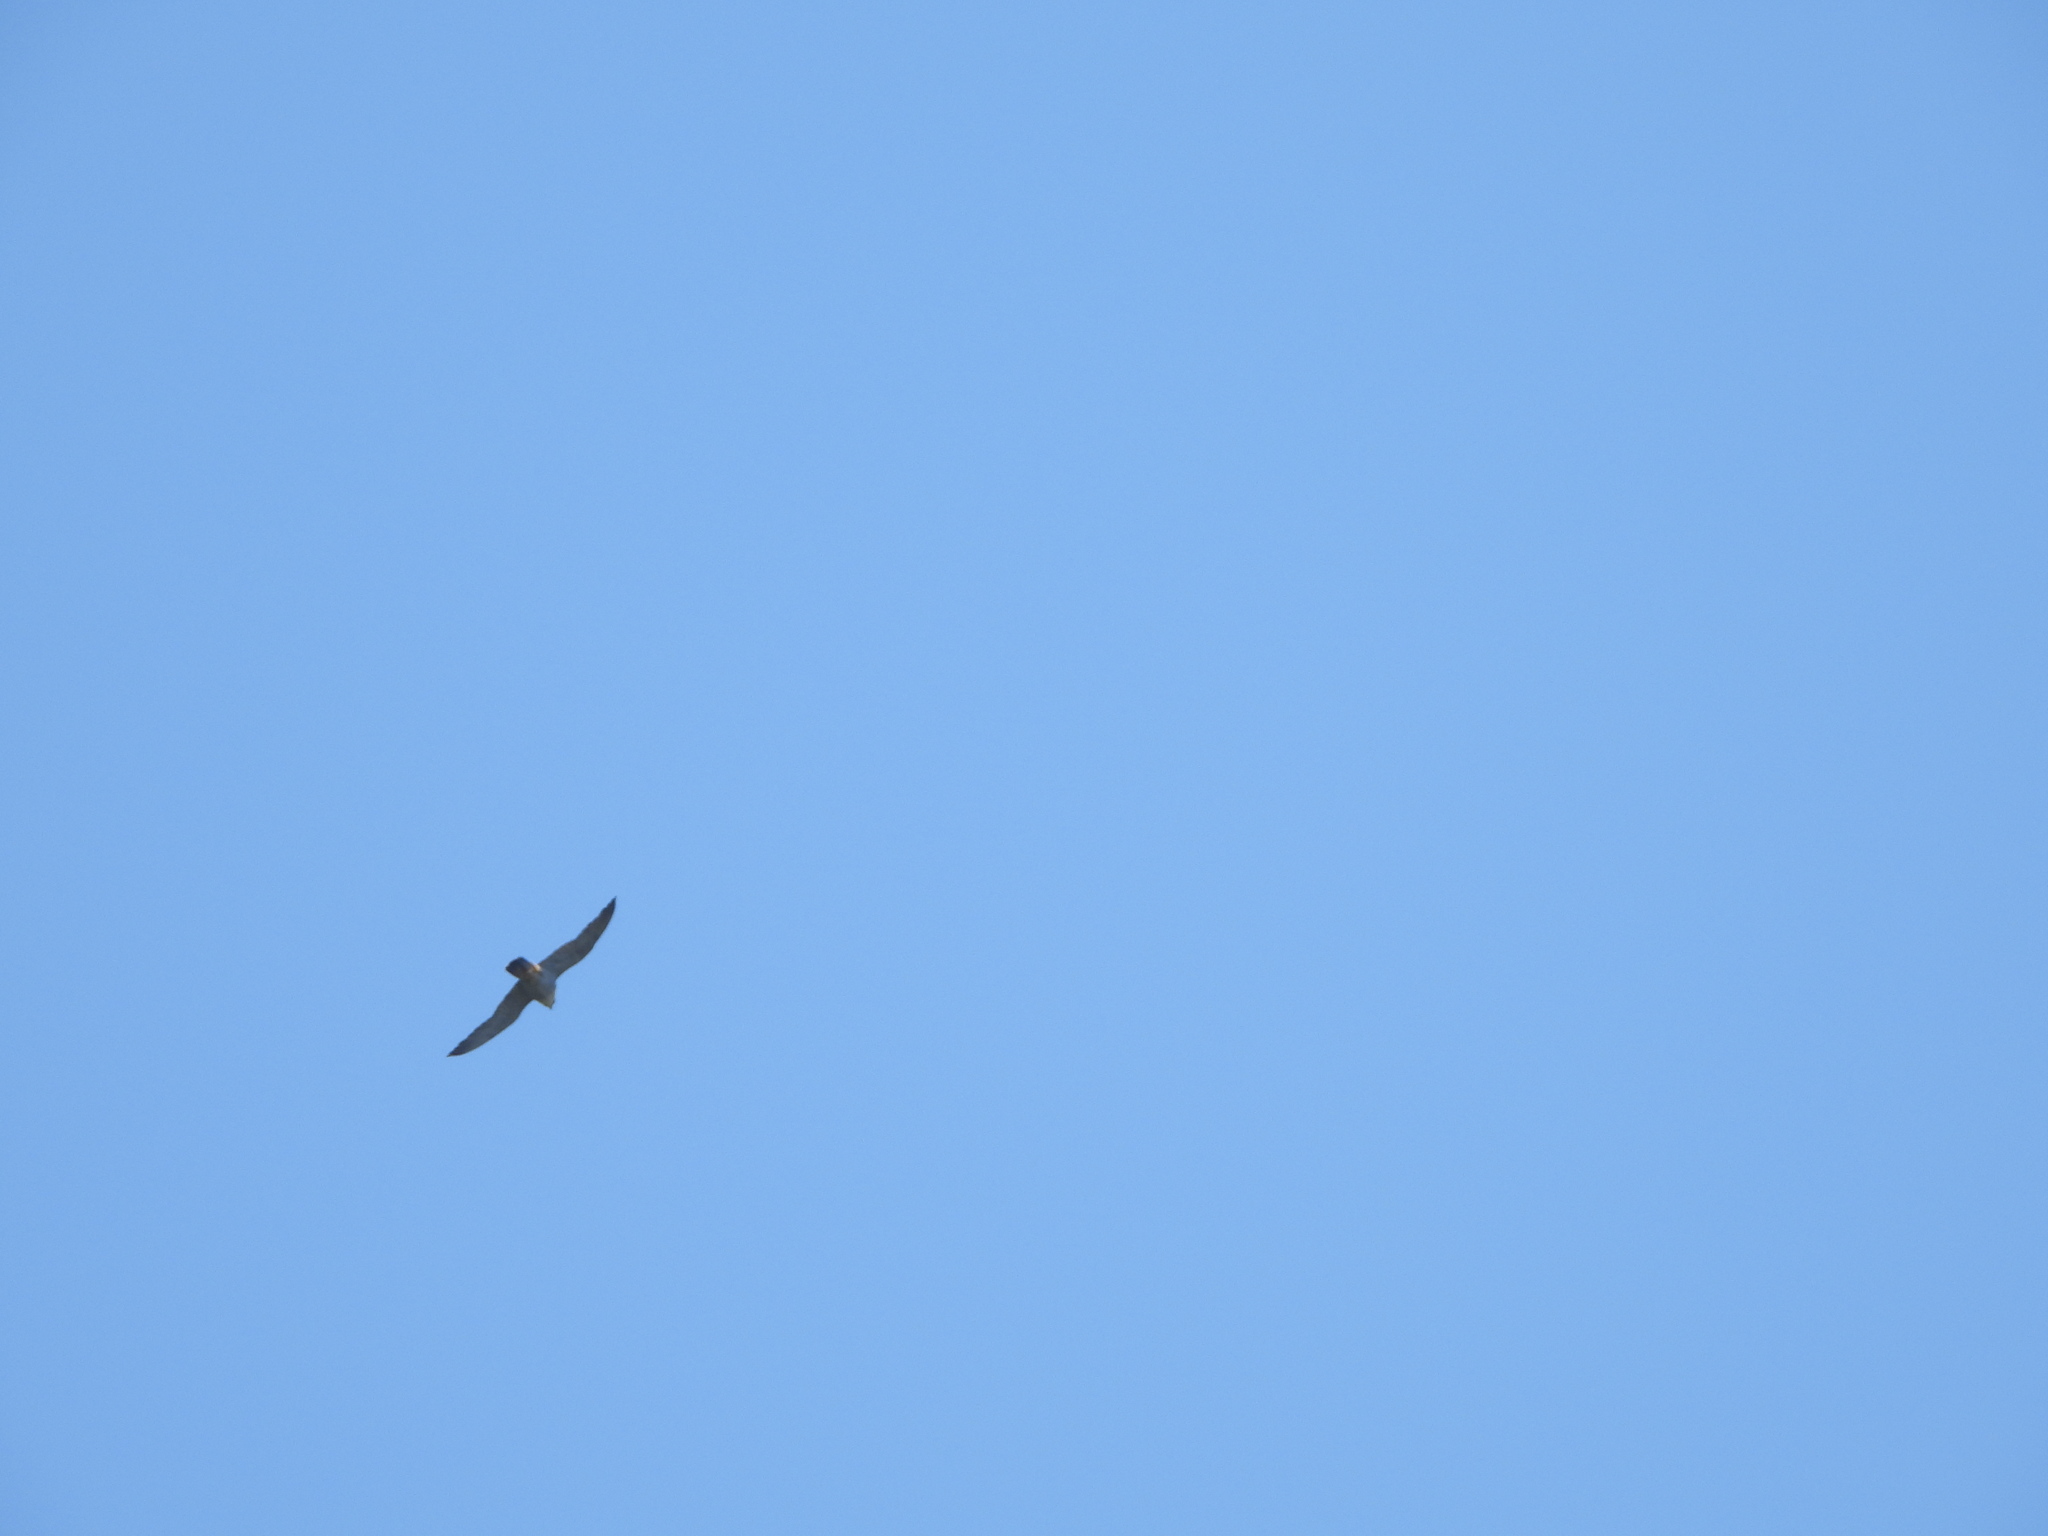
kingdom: Animalia
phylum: Chordata
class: Aves
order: Falconiformes
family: Falconidae
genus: Falco
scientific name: Falco peregrinus
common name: Peregrine falcon
